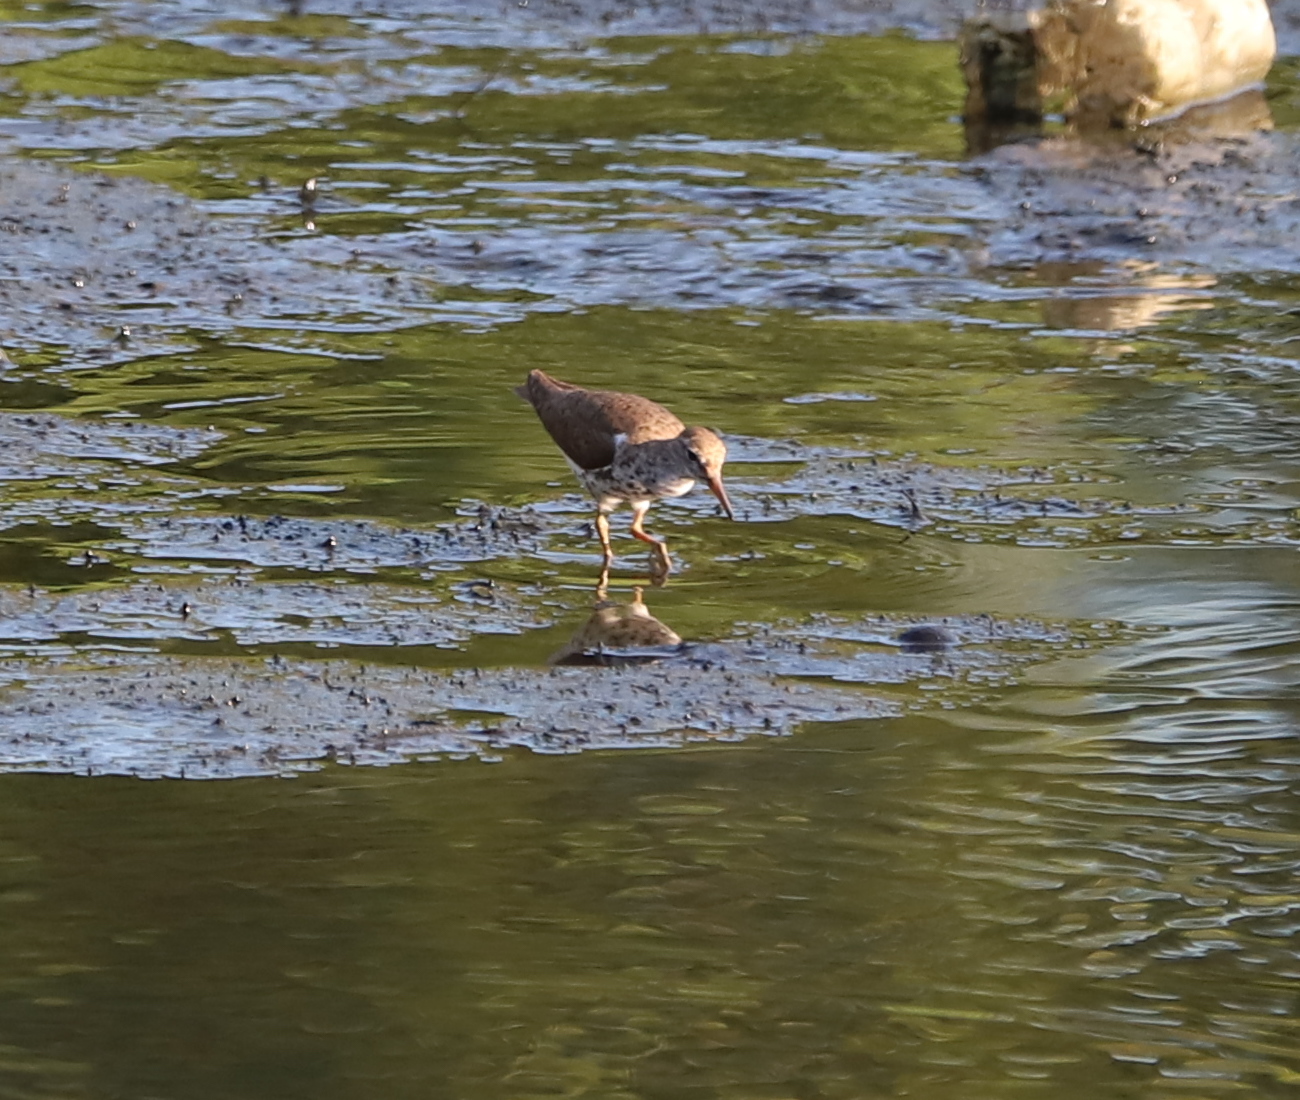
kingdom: Animalia
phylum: Chordata
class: Aves
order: Charadriiformes
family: Scolopacidae
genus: Actitis
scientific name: Actitis macularius
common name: Spotted sandpiper
